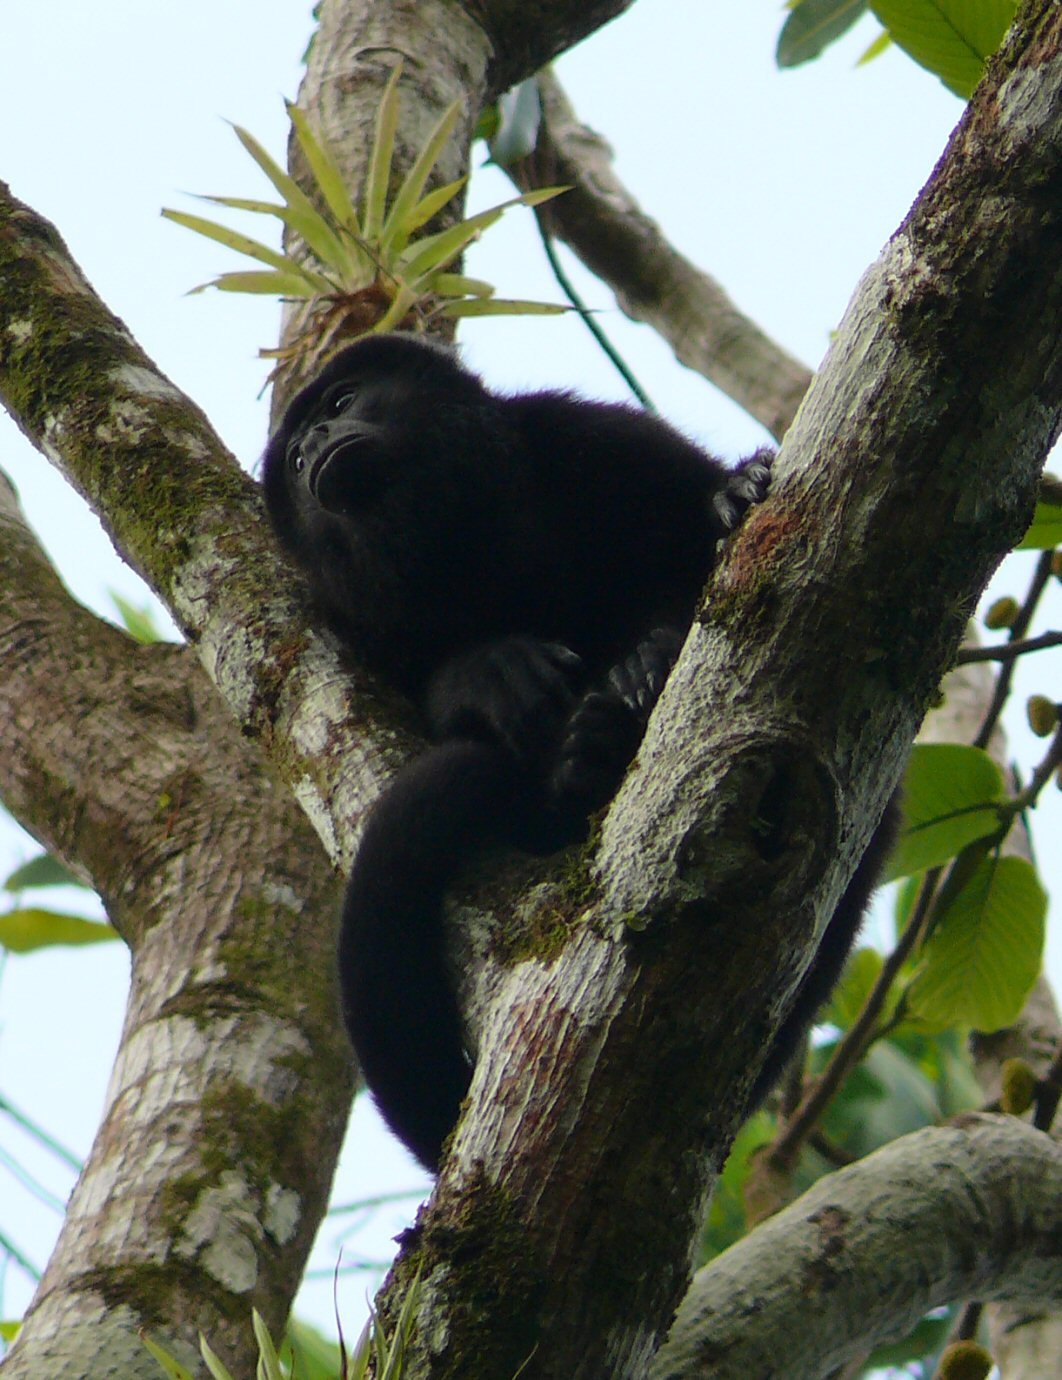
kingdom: Animalia
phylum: Chordata
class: Mammalia
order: Primates
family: Atelidae
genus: Alouatta
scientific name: Alouatta palliata
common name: Mantled howler
